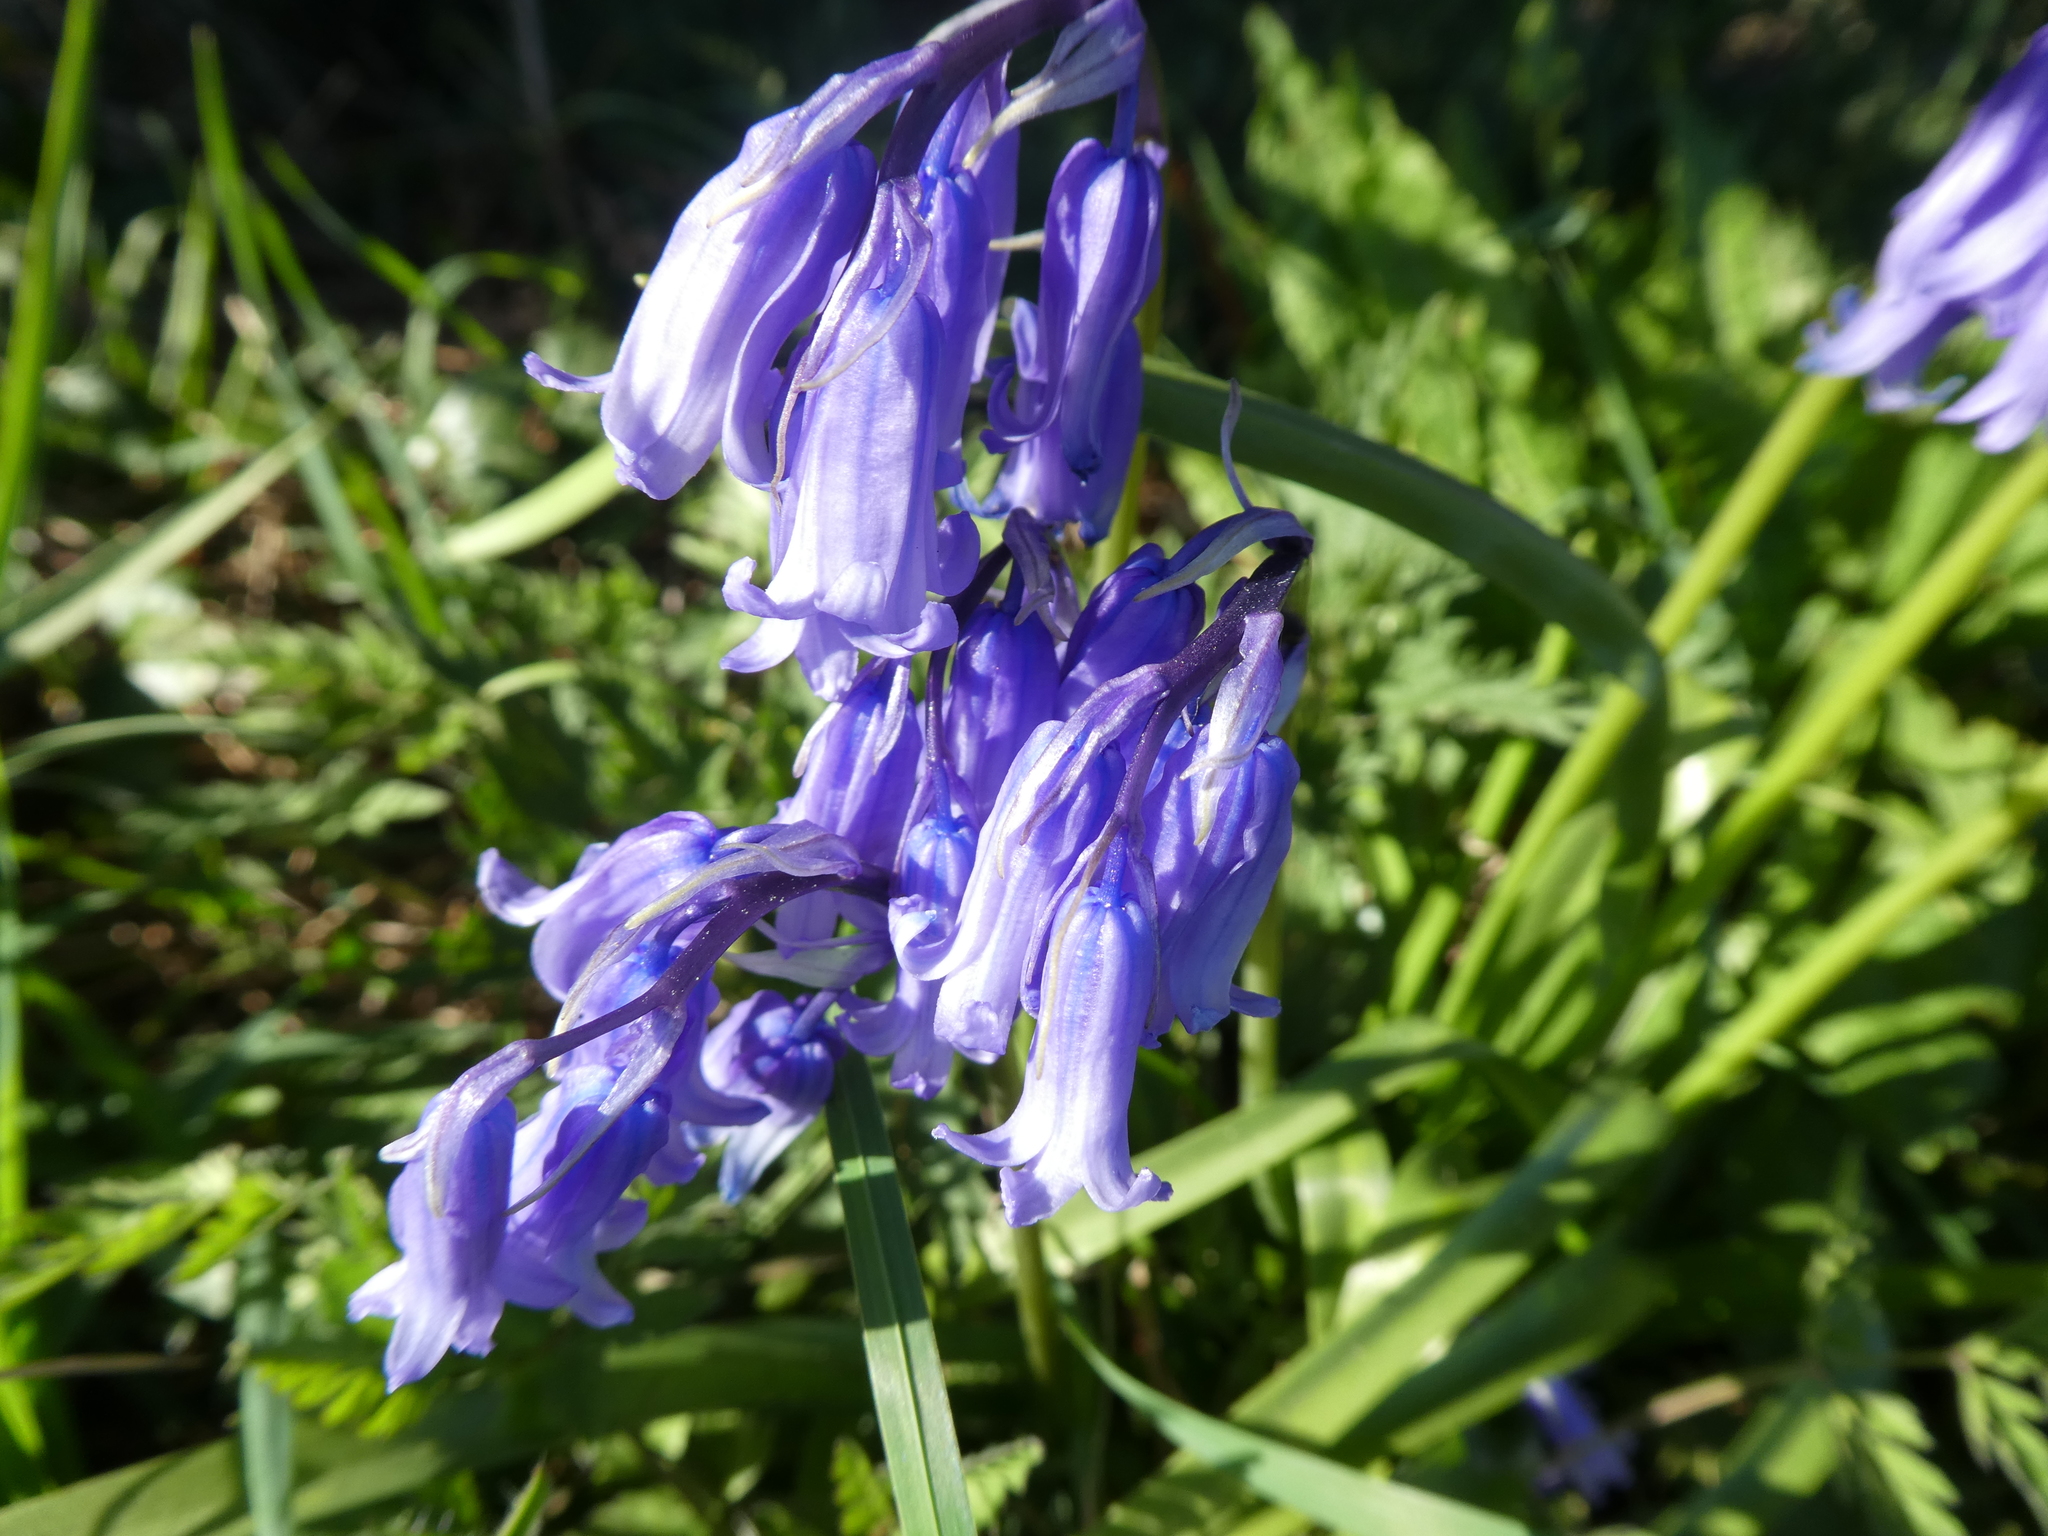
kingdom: Plantae
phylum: Tracheophyta
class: Liliopsida
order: Asparagales
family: Asparagaceae
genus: Hyacinthoides
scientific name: Hyacinthoides non-scripta
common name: Bluebell
